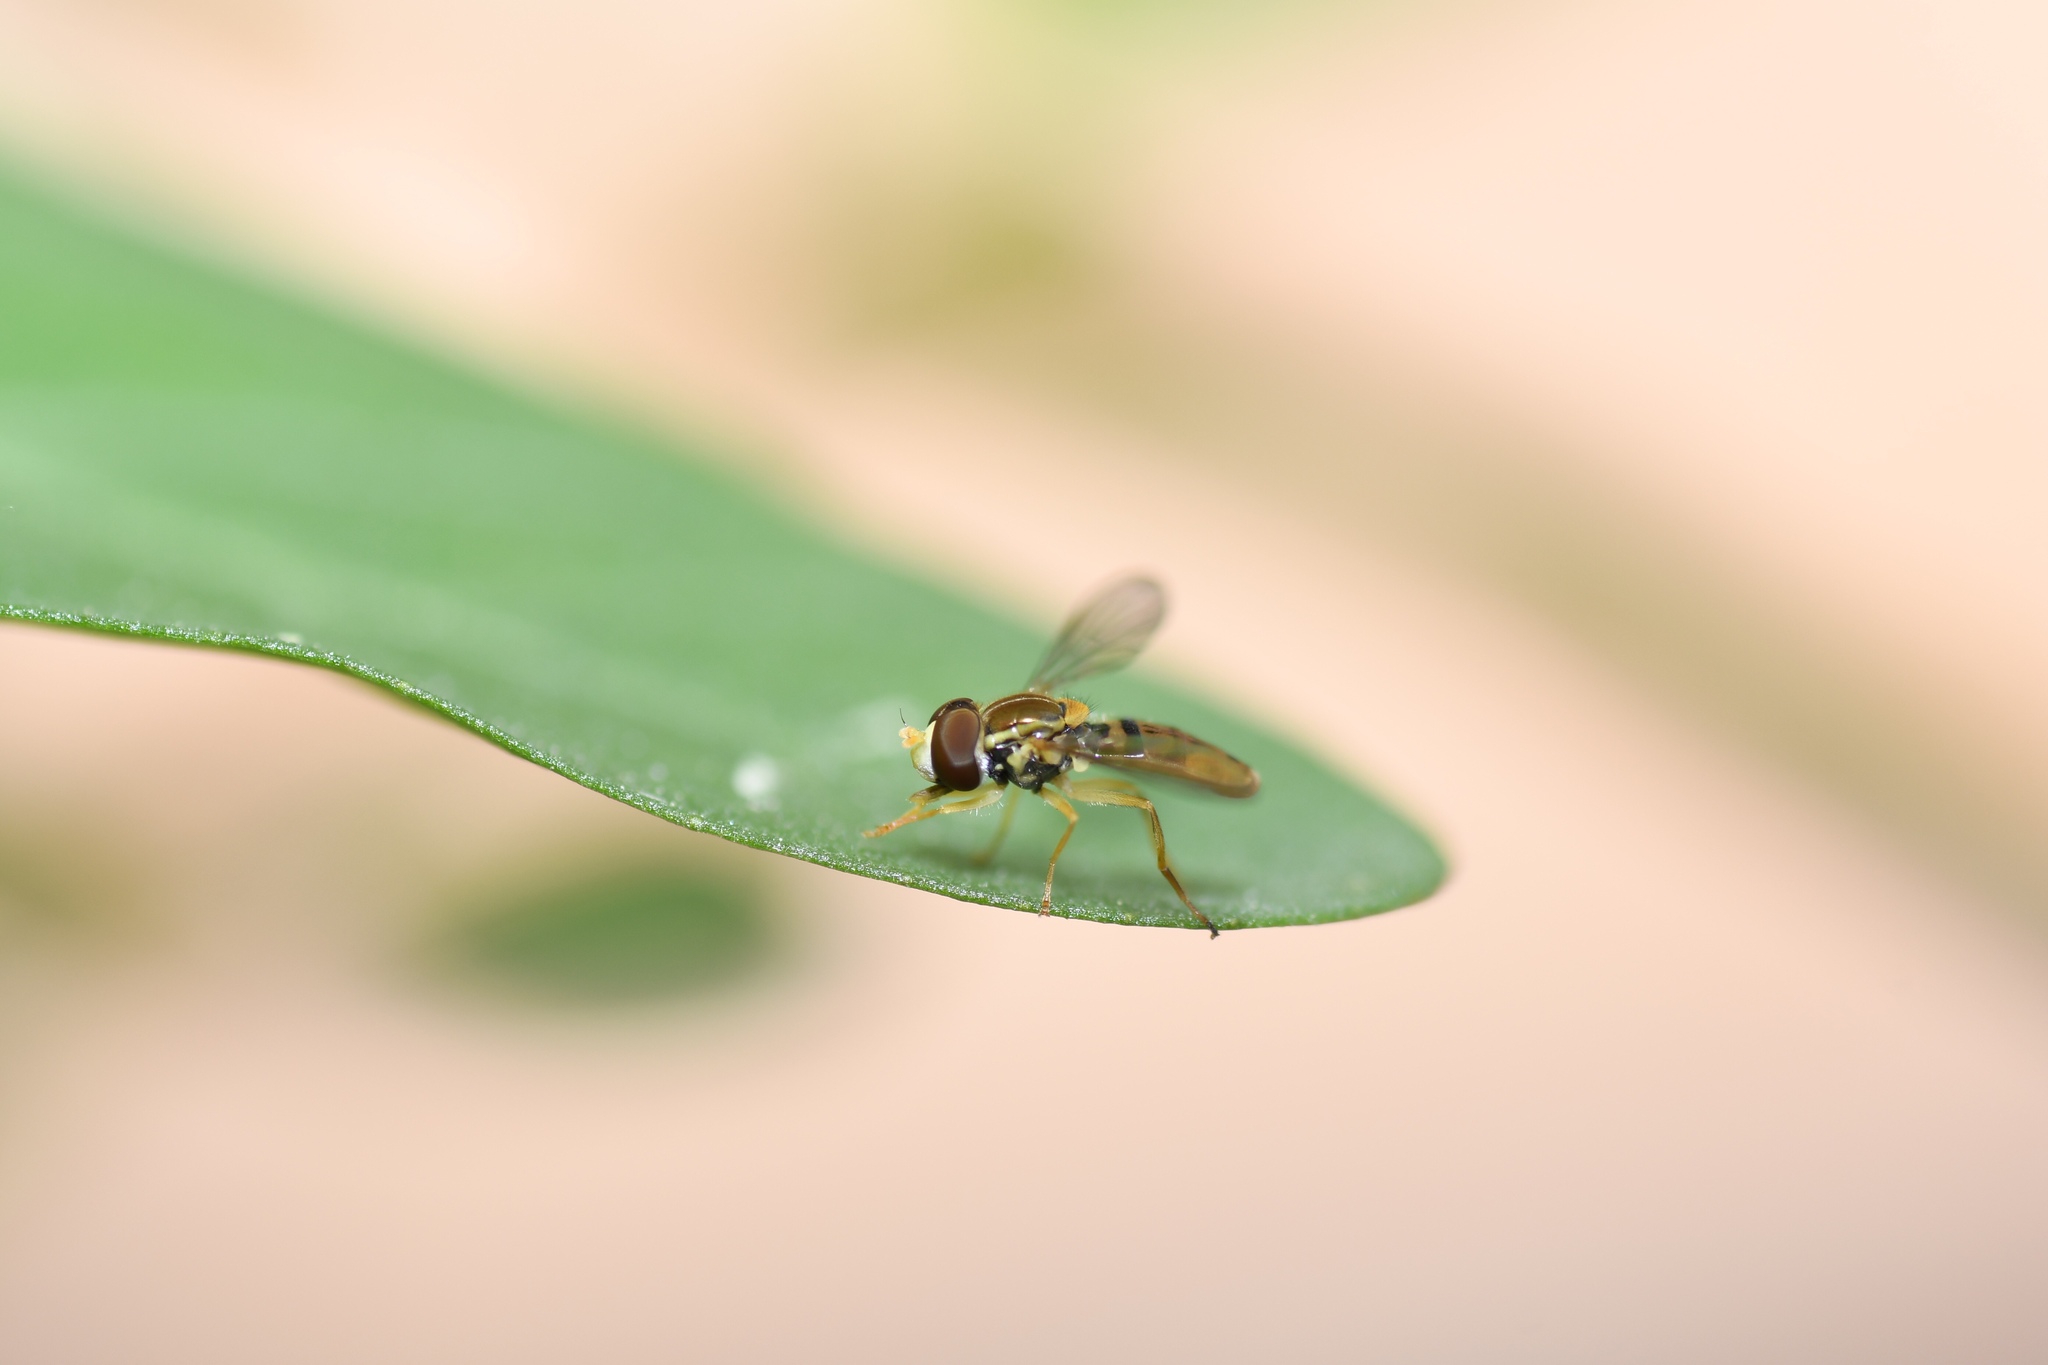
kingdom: Animalia
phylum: Arthropoda
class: Insecta
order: Diptera
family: Syrphidae
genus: Toxomerus
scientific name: Toxomerus marginatus
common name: Syrphid fly
